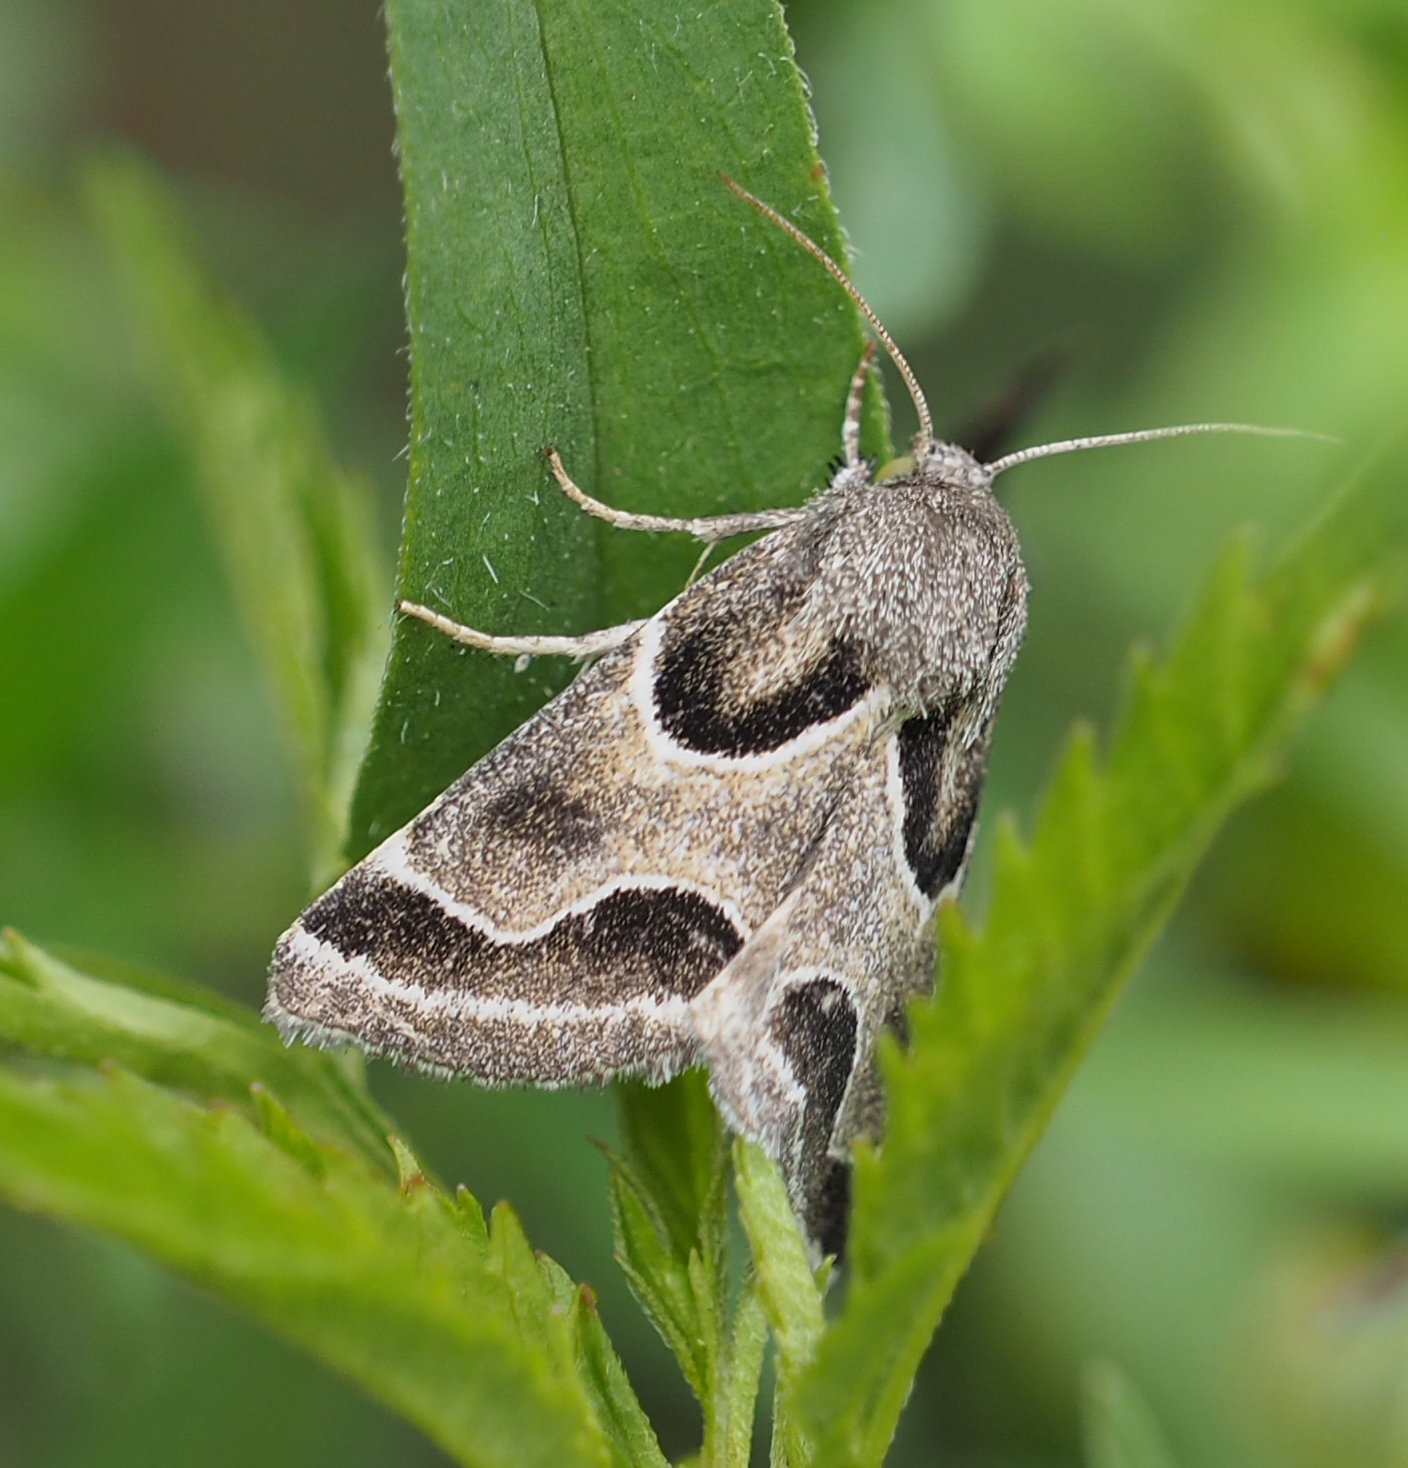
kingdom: Animalia
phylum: Arthropoda
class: Insecta
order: Lepidoptera
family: Noctuidae
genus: Schinia
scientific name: Schinia rivulosa
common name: Scarce meal-moth
